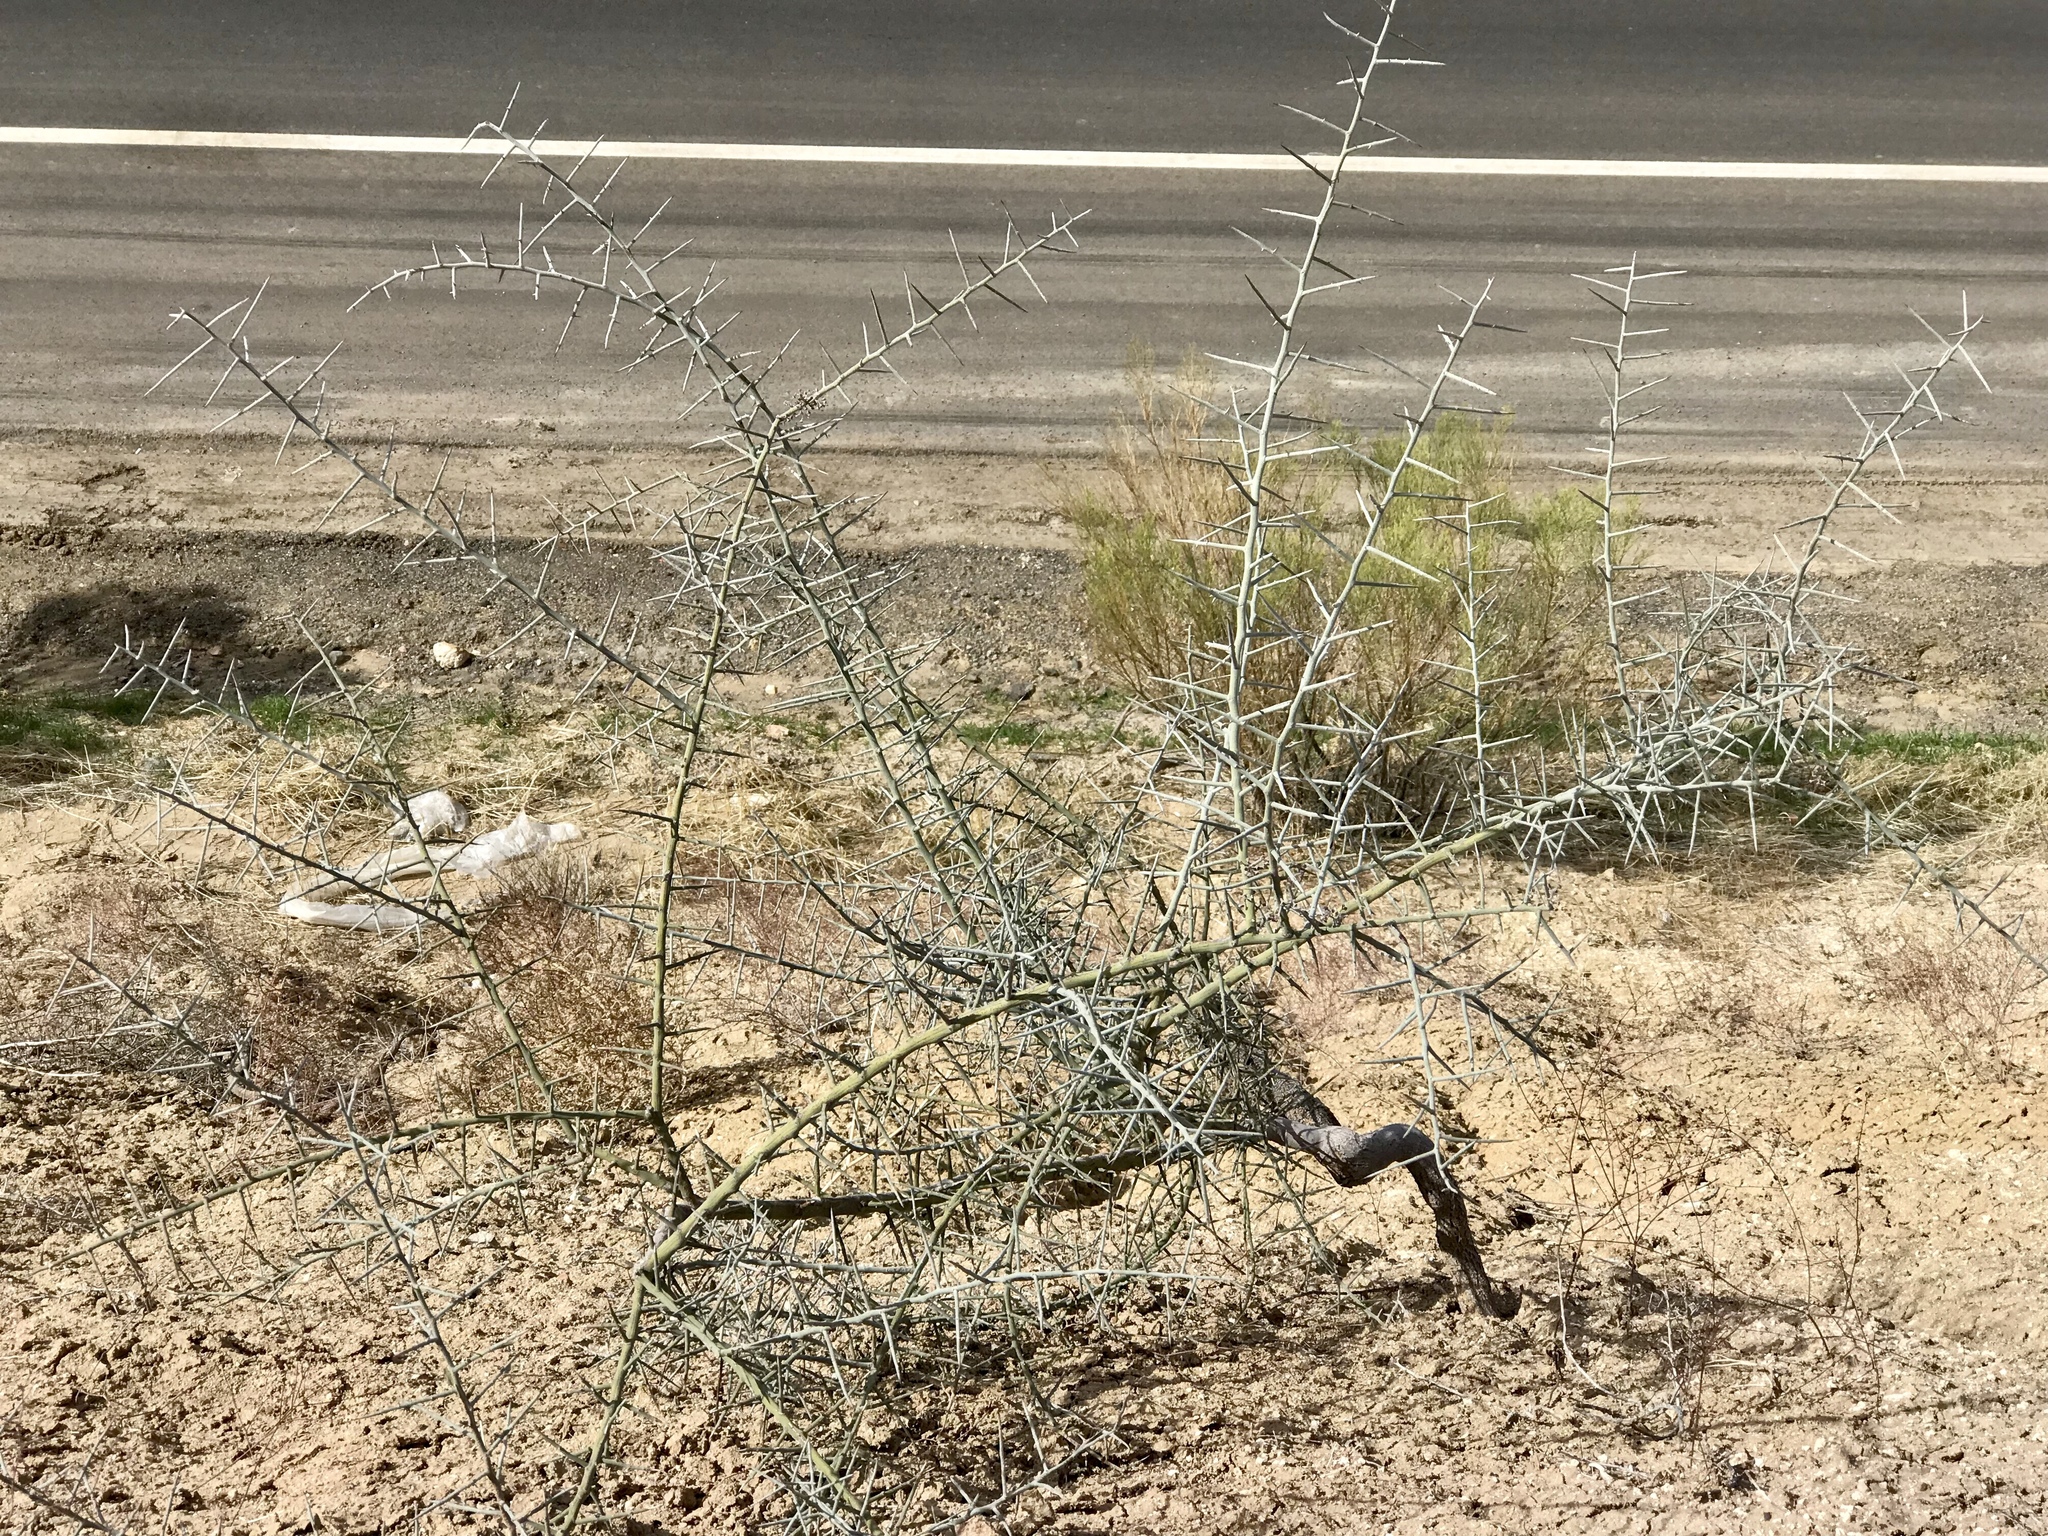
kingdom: Plantae
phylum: Tracheophyta
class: Magnoliopsida
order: Rosales
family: Rhamnaceae
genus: Sarcomphalus
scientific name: Sarcomphalus obtusifolius
